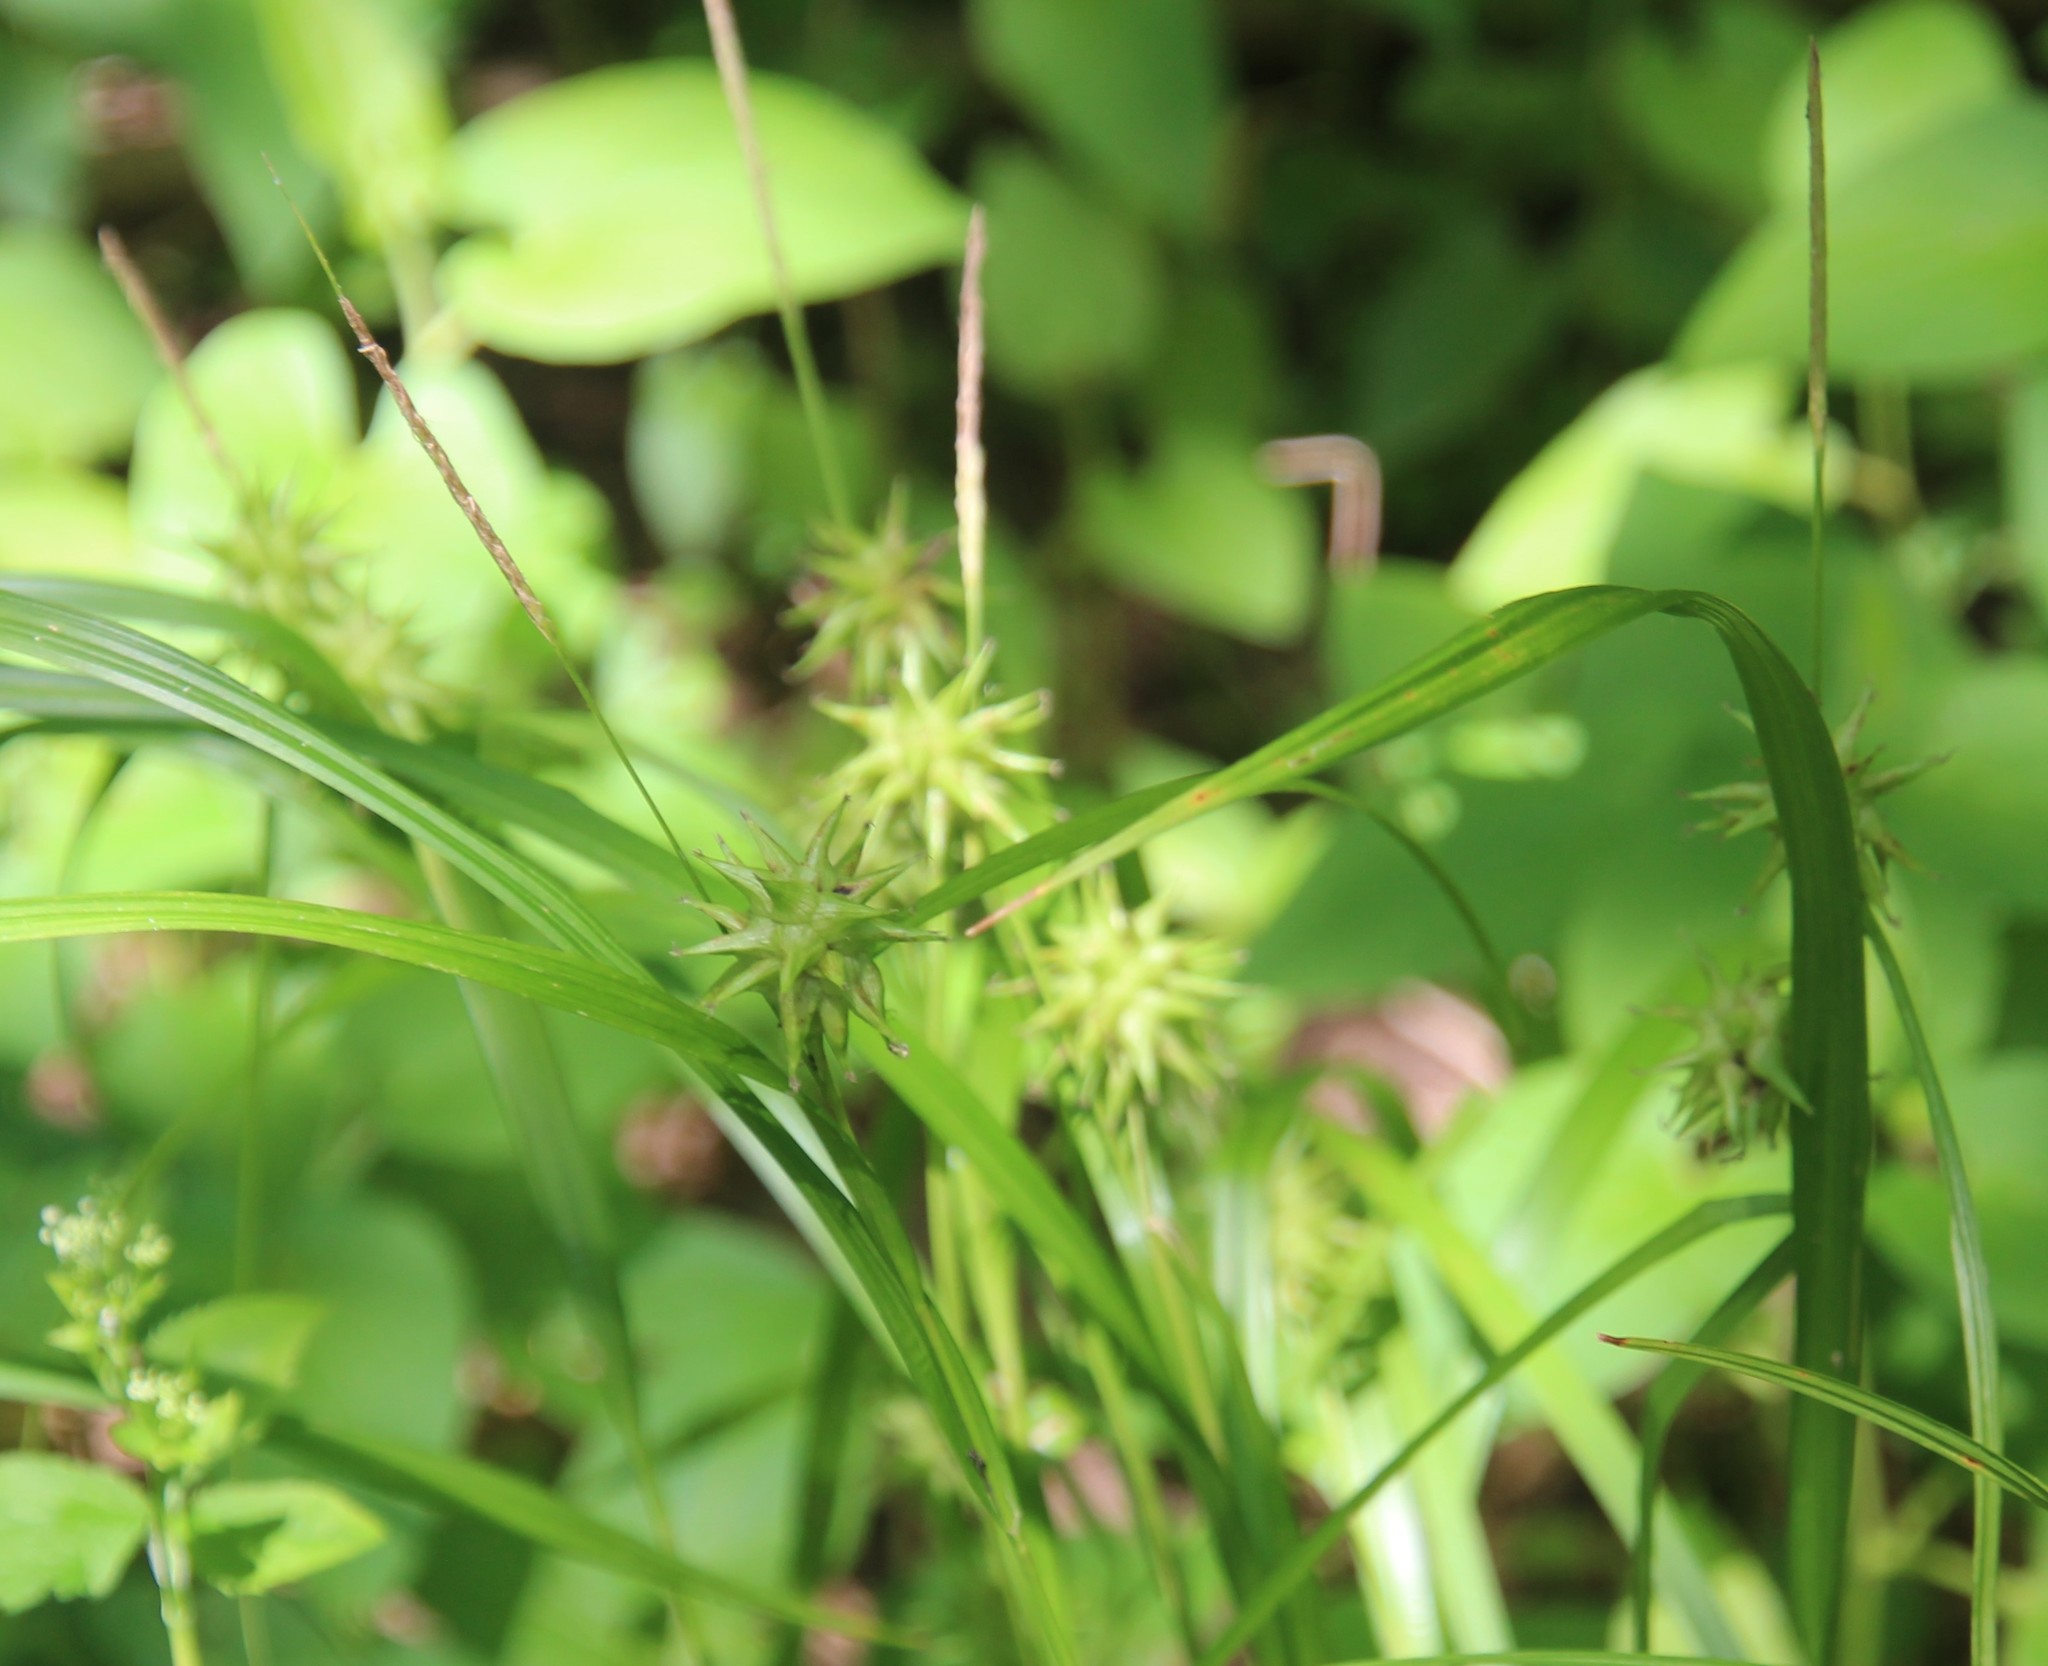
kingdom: Plantae
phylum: Tracheophyta
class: Liliopsida
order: Poales
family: Cyperaceae
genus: Carex
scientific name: Carex grayi
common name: Asa gray's sedge
